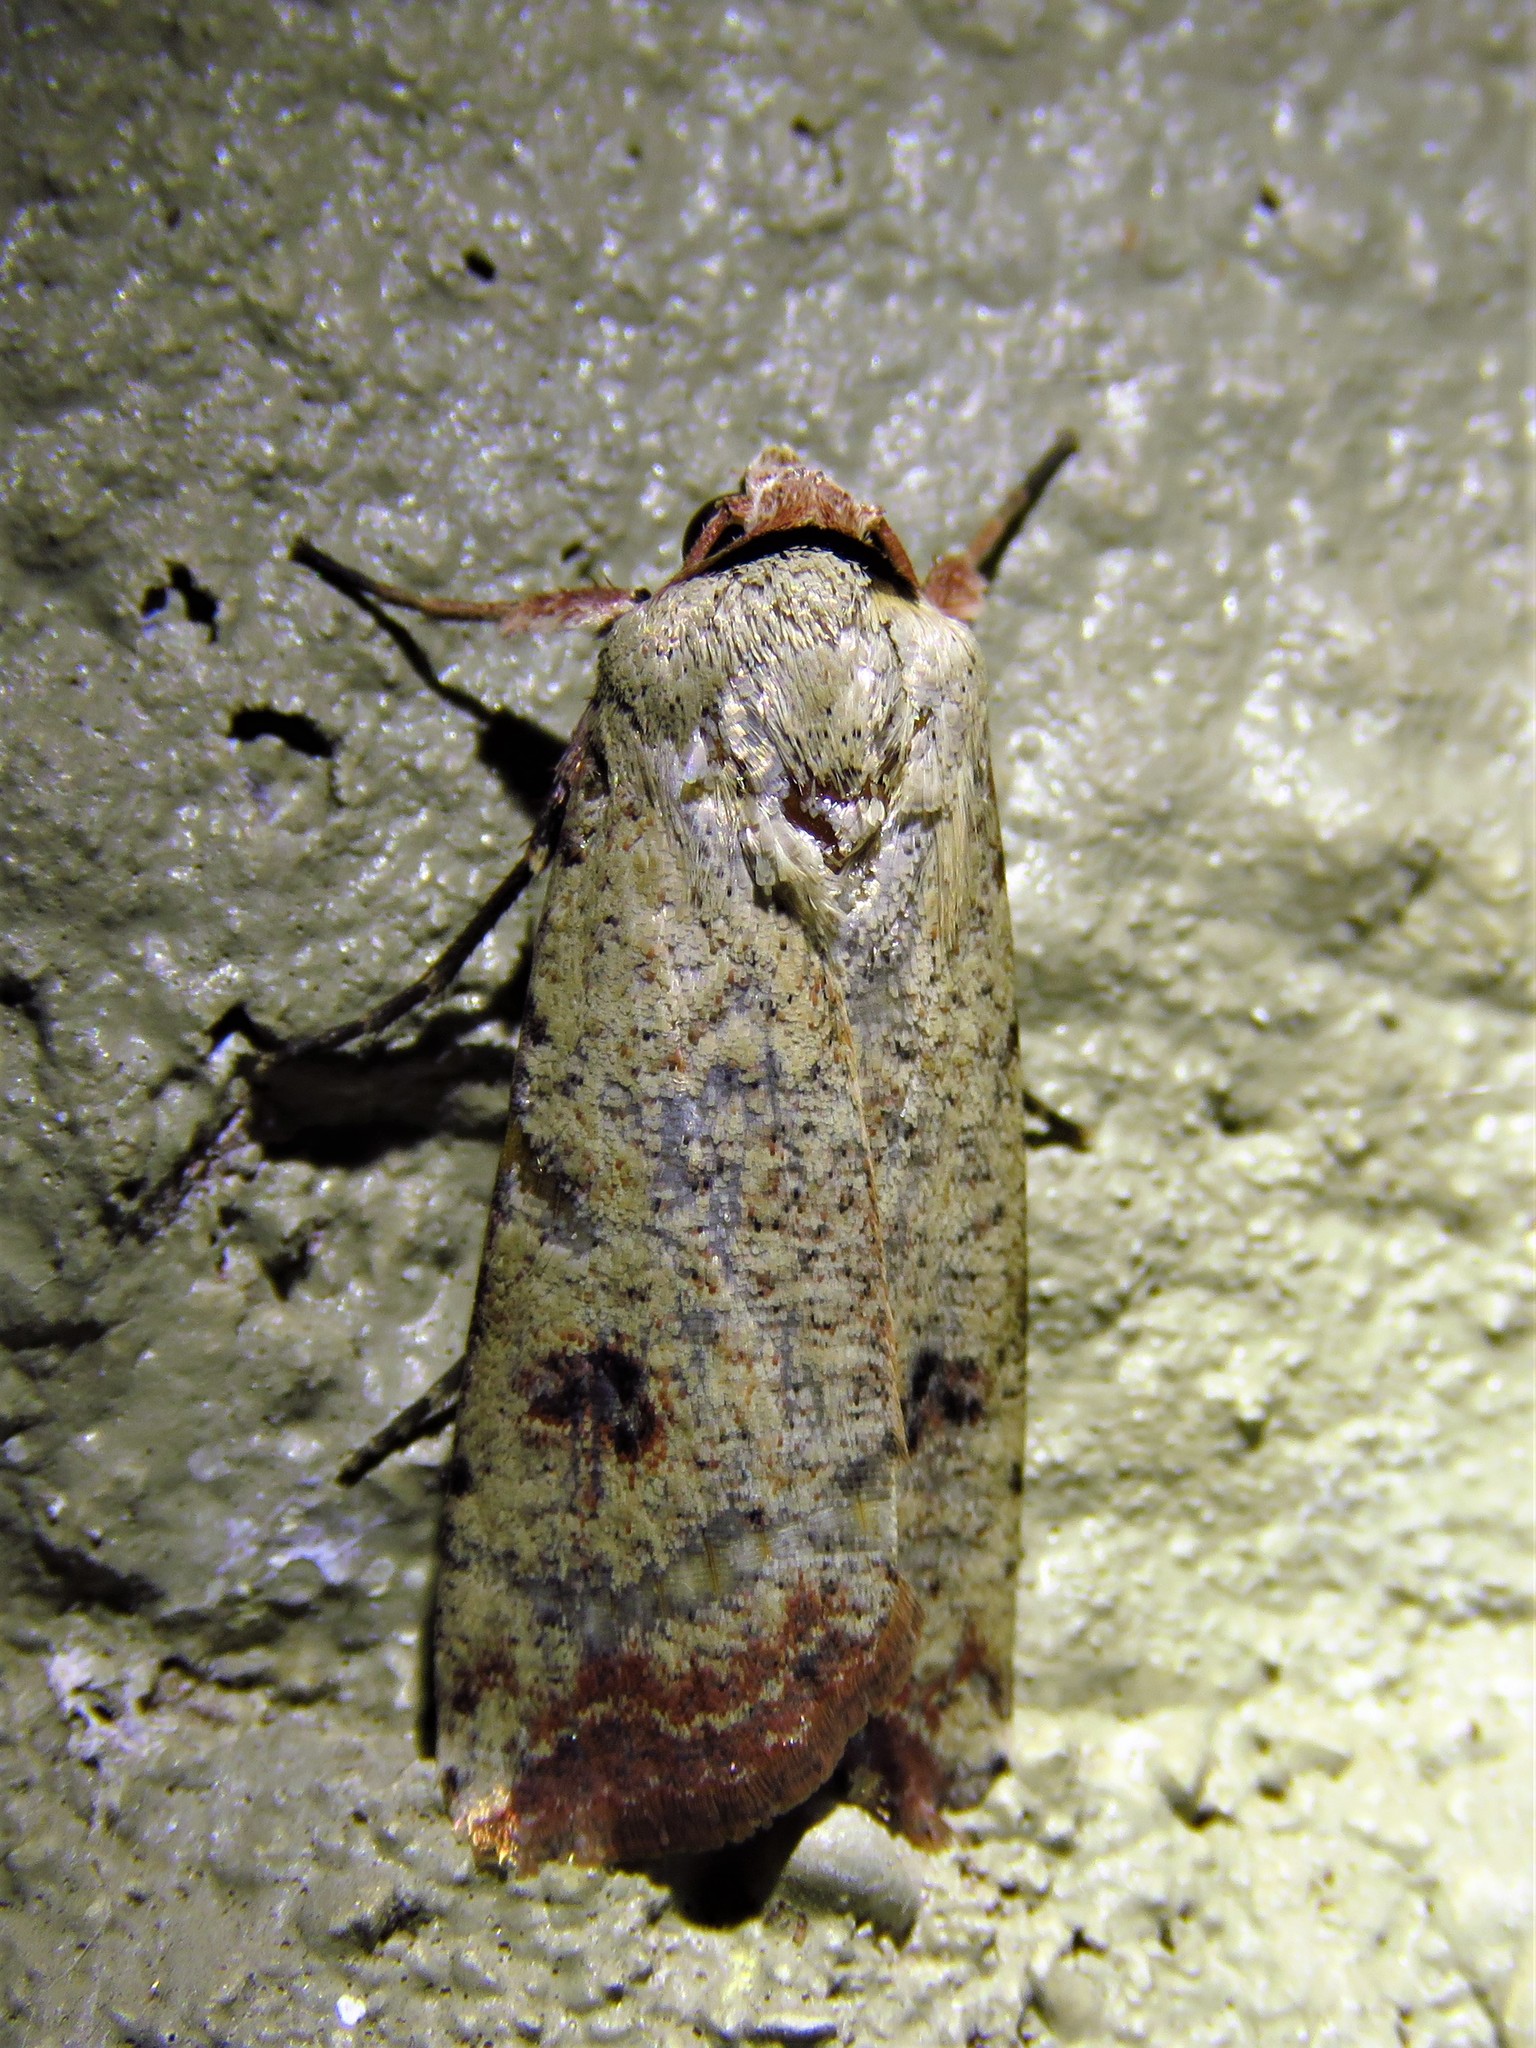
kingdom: Animalia
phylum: Arthropoda
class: Insecta
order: Lepidoptera
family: Noctuidae
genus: Anicla
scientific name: Anicla infecta
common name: Green cutworm
